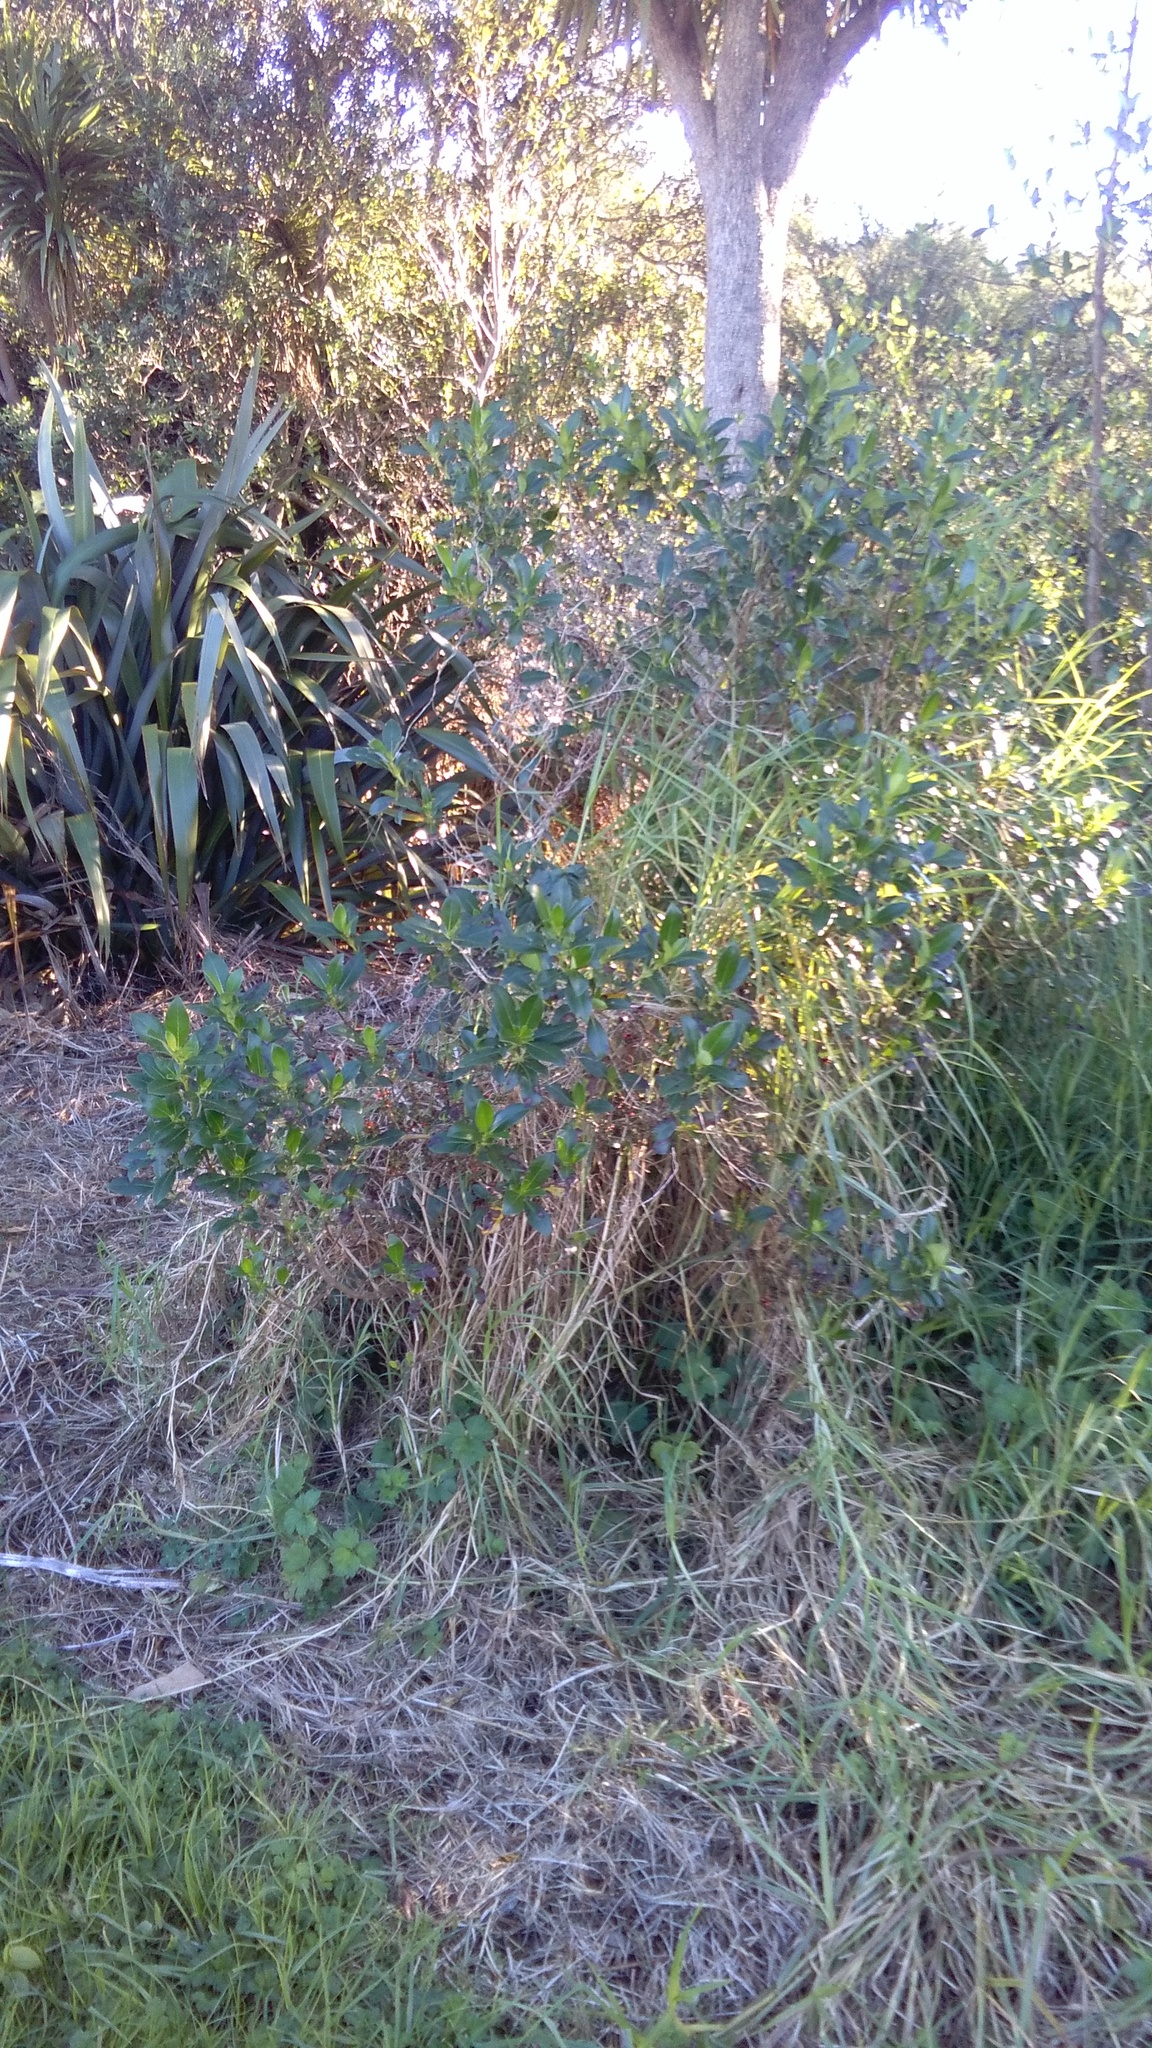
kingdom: Plantae
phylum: Tracheophyta
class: Liliopsida
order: Poales
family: Poaceae
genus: Cenchrus
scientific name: Cenchrus clandestinus
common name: Kikuyugrass
